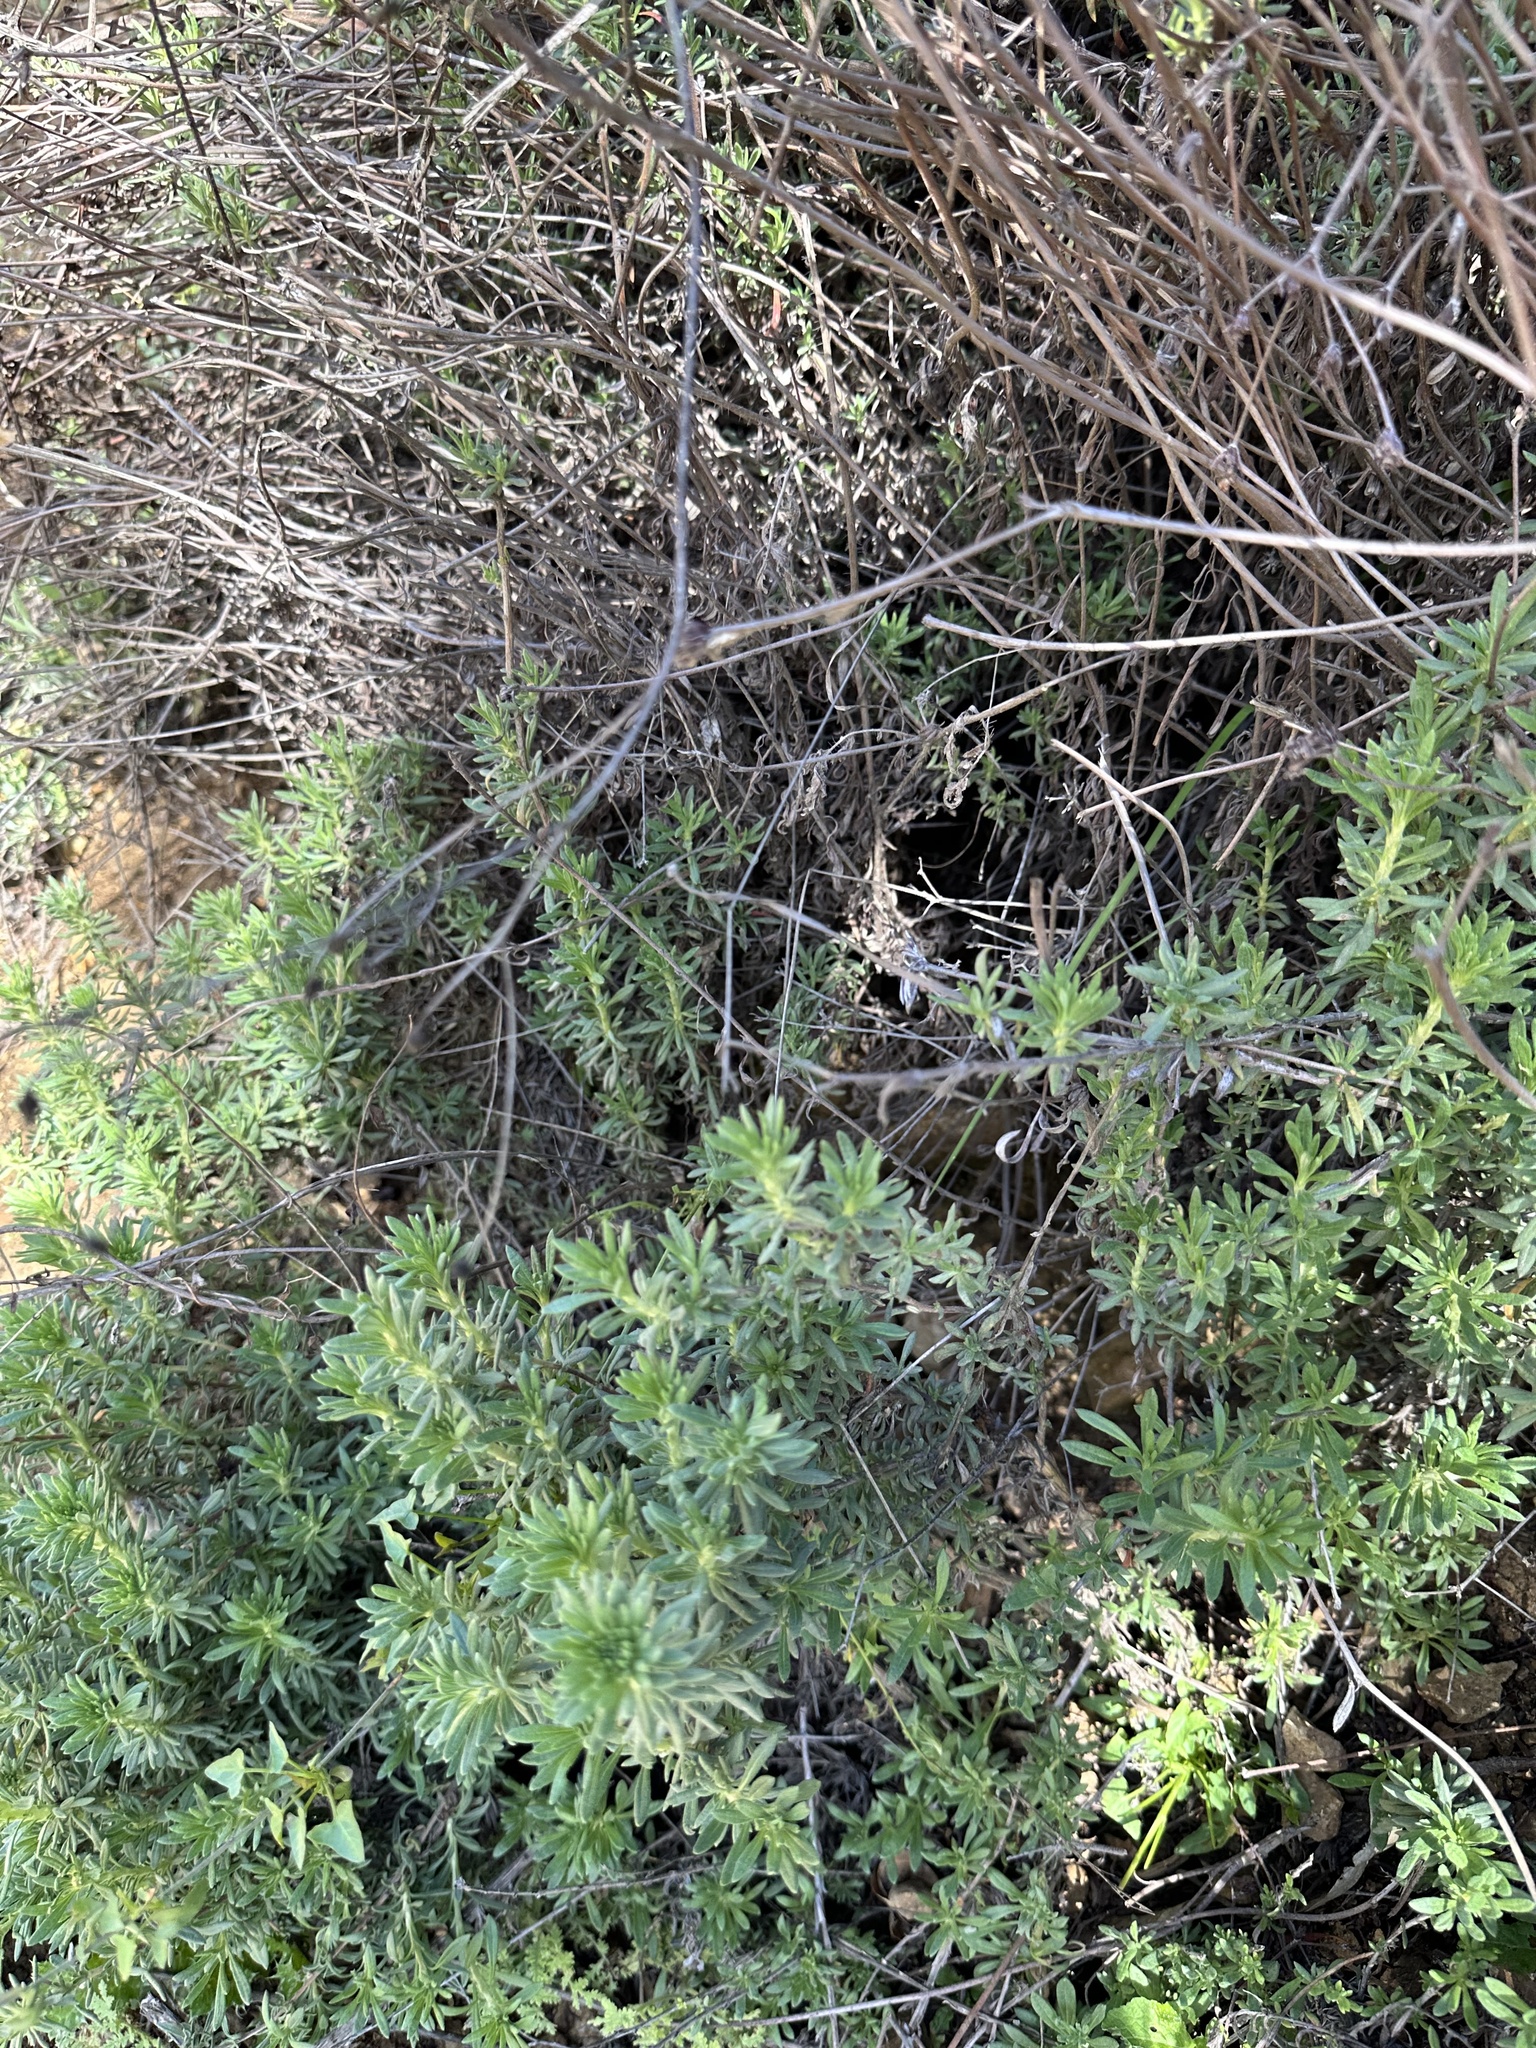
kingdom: Plantae
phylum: Tracheophyta
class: Magnoliopsida
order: Caryophyllales
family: Polygonaceae
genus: Eriogonum
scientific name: Eriogonum fasciculatum
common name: California wild buckwheat
